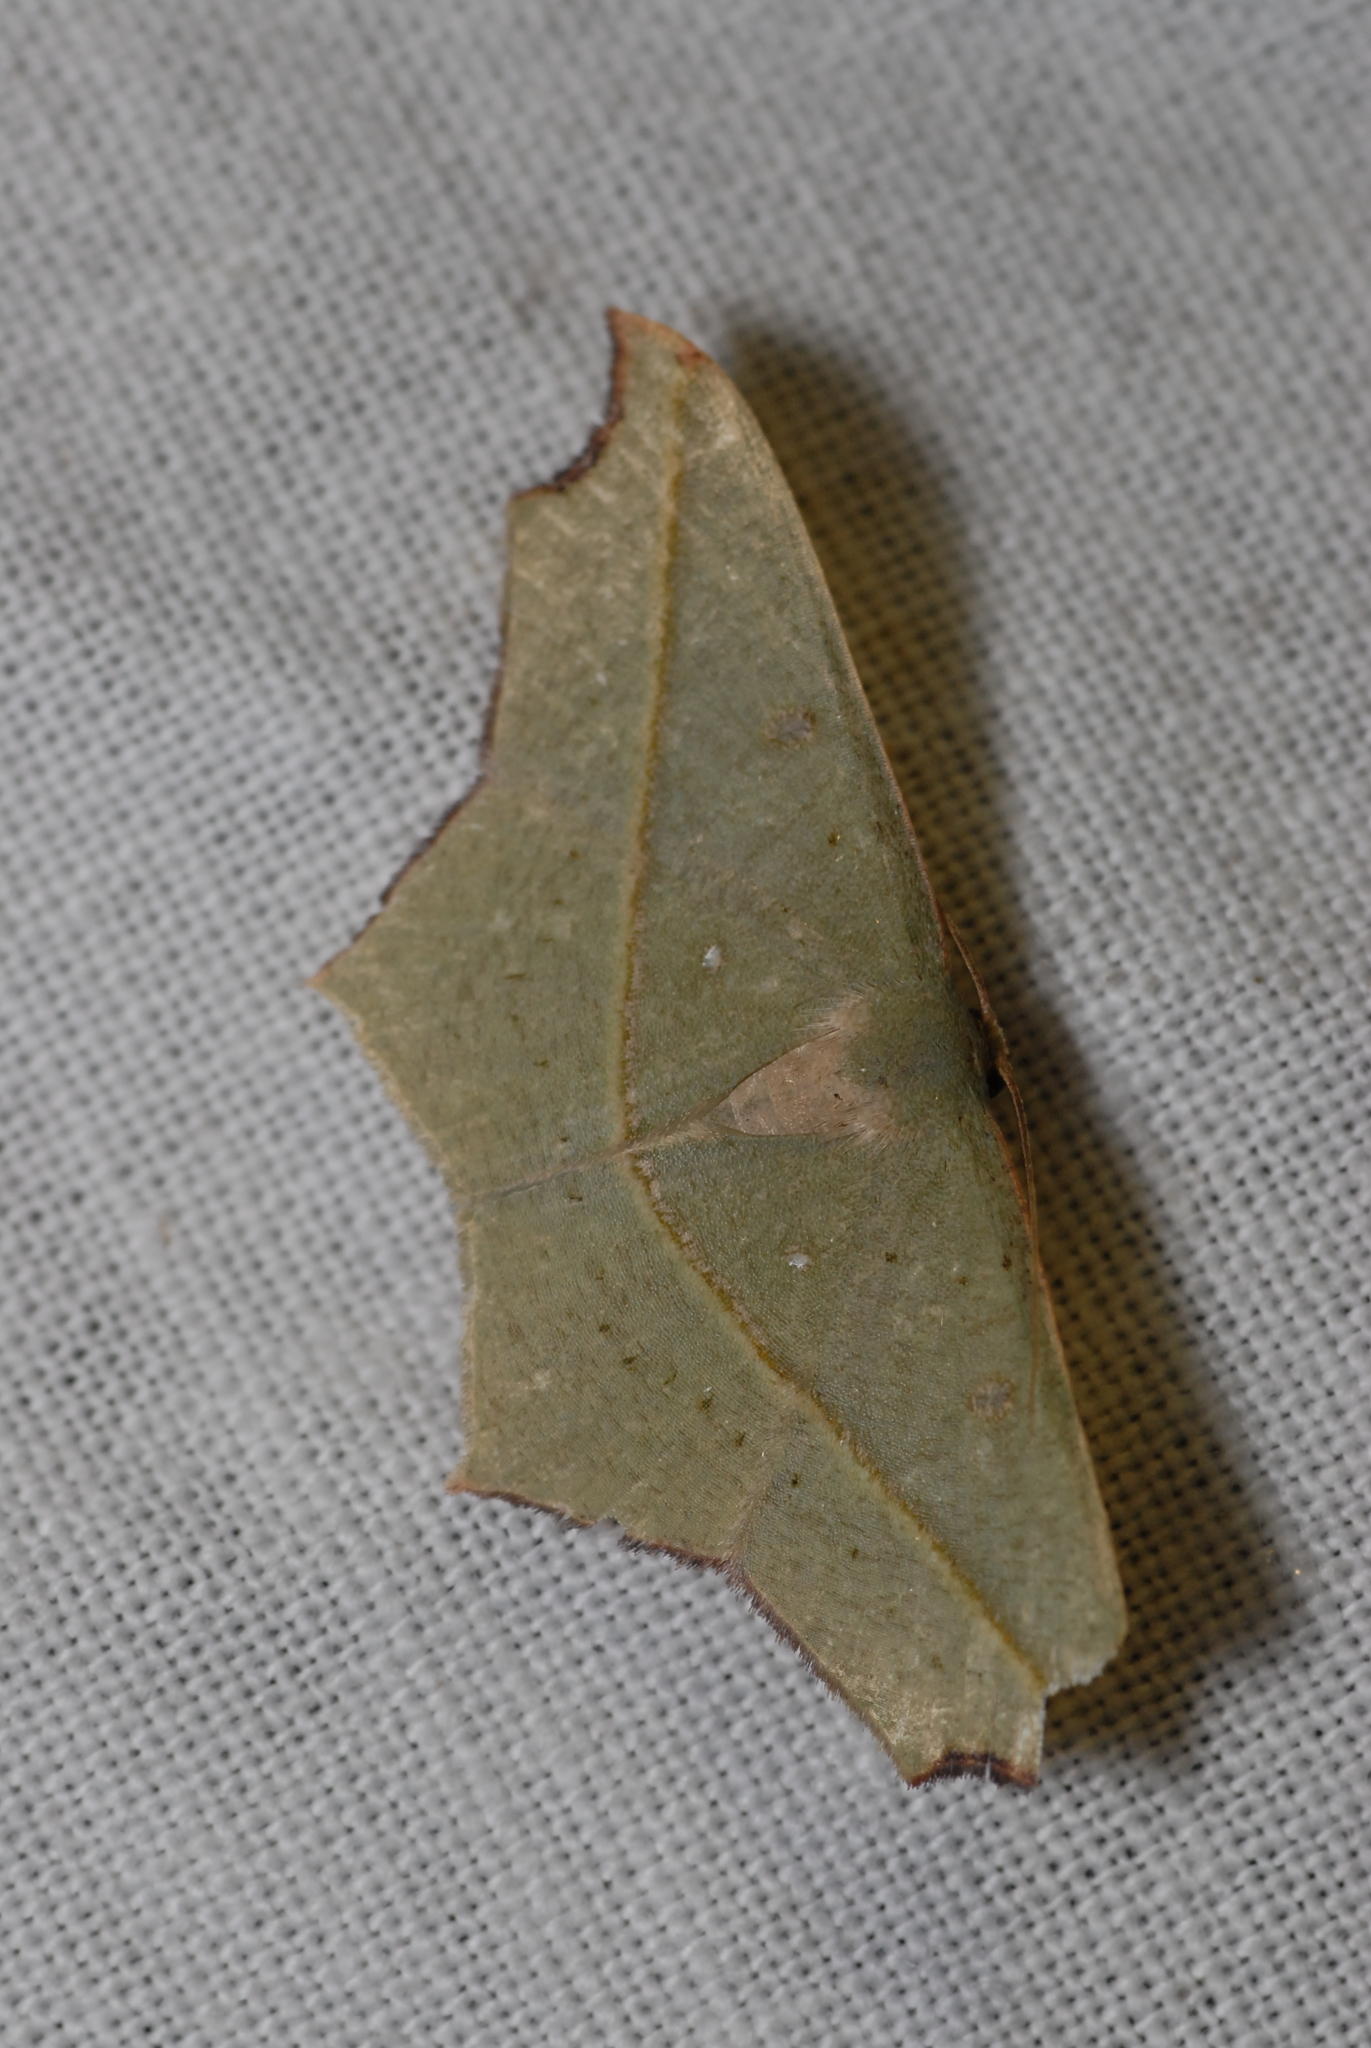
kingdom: Animalia
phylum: Arthropoda
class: Insecta
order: Lepidoptera
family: Geometridae
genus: Traminda
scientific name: Traminda aventiaria
